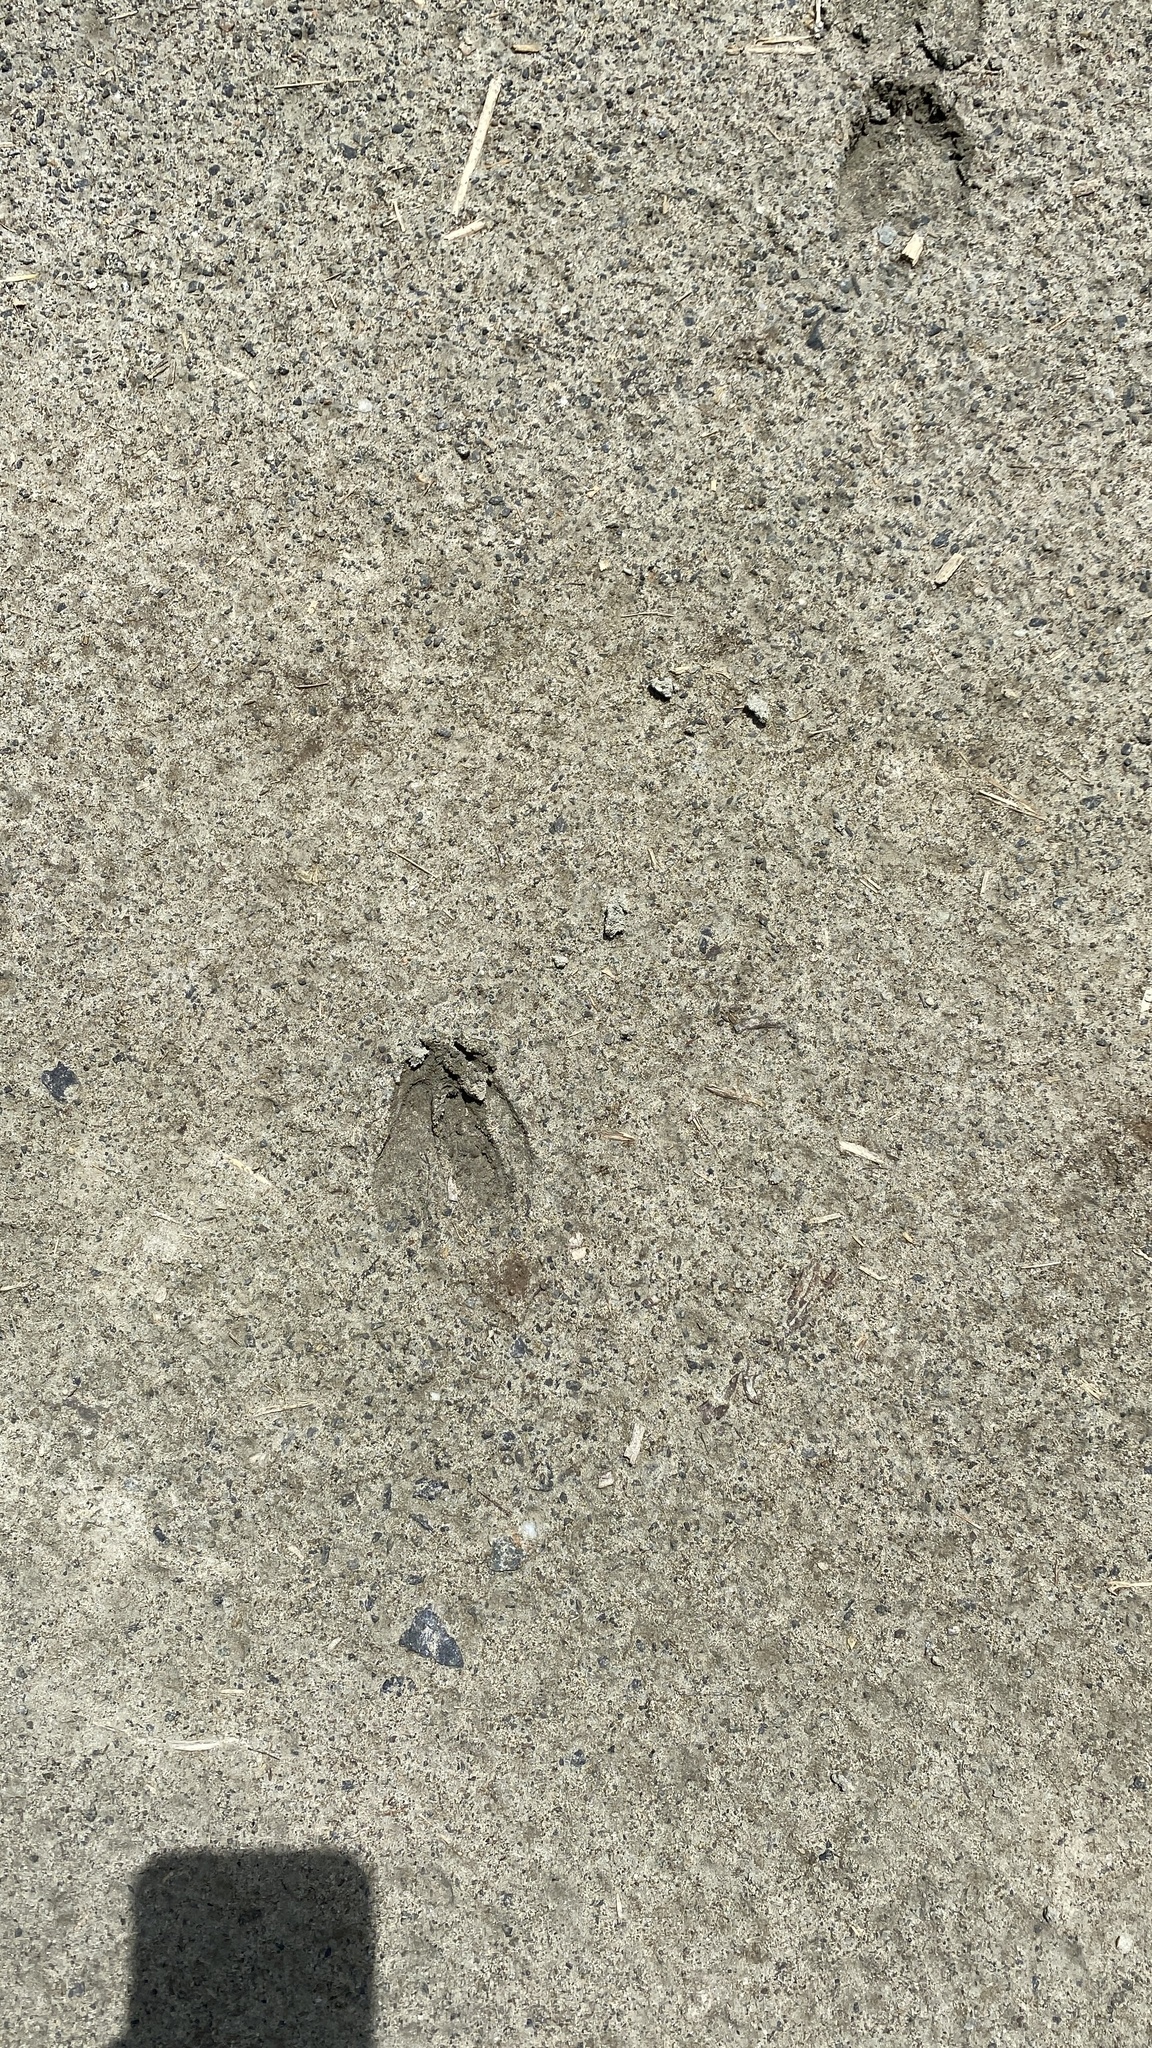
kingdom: Animalia
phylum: Chordata
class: Mammalia
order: Artiodactyla
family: Cervidae
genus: Odocoileus
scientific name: Odocoileus virginianus
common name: White-tailed deer
